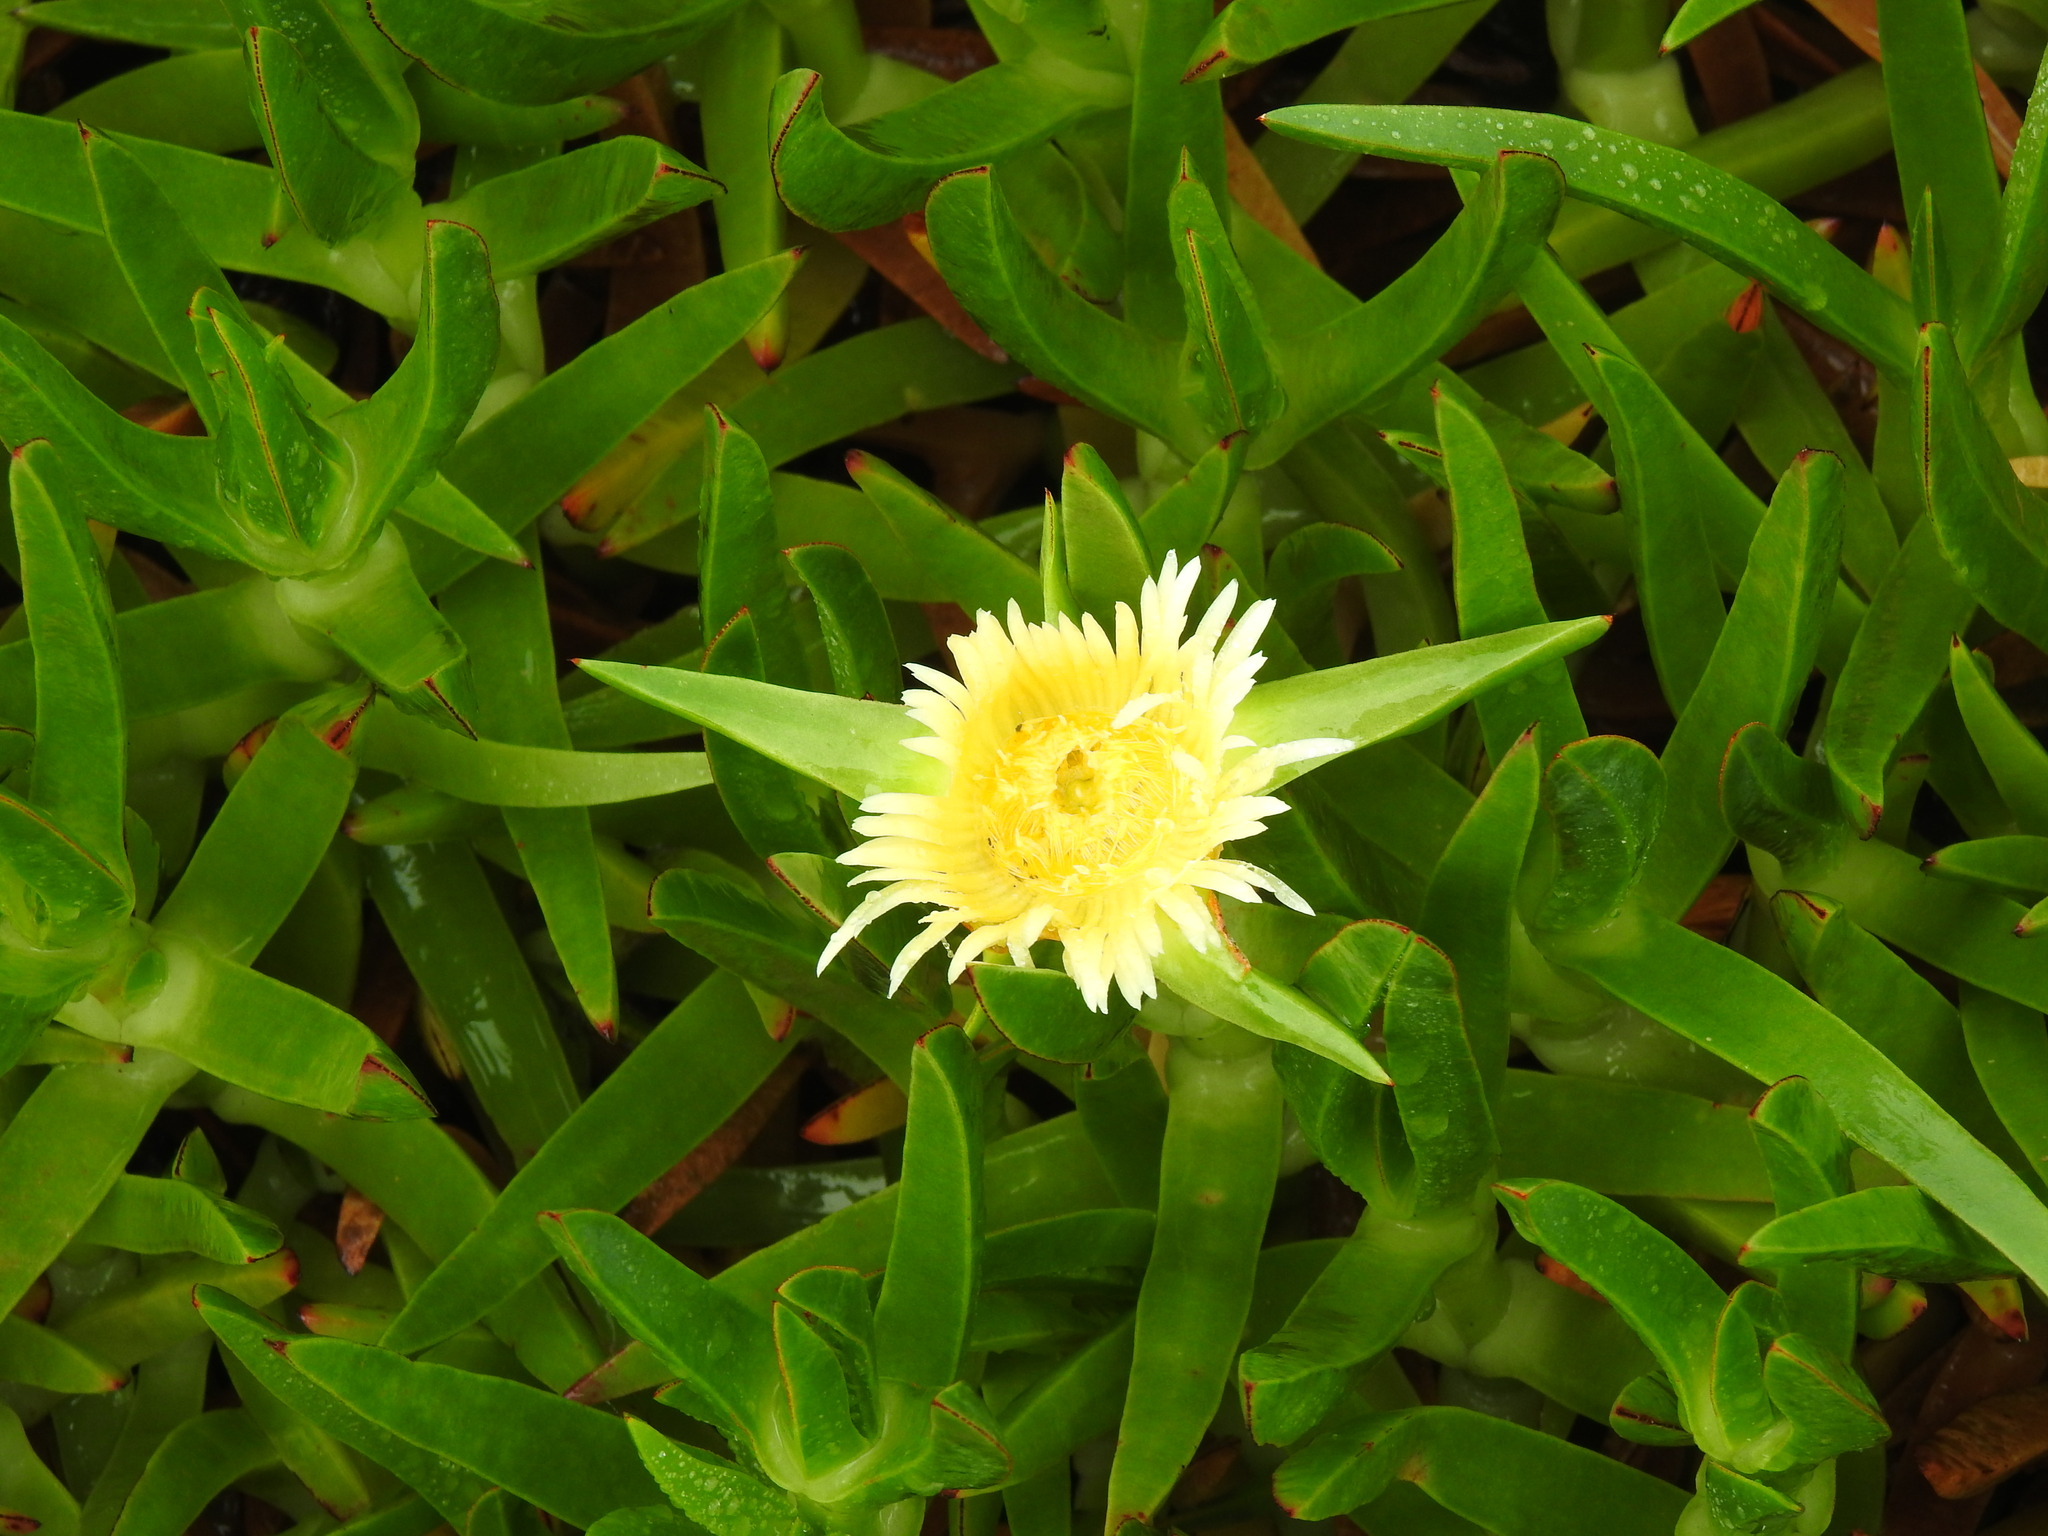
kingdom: Plantae
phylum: Tracheophyta
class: Magnoliopsida
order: Caryophyllales
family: Aizoaceae
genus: Carpobrotus
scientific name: Carpobrotus edulis
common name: Hottentot-fig
